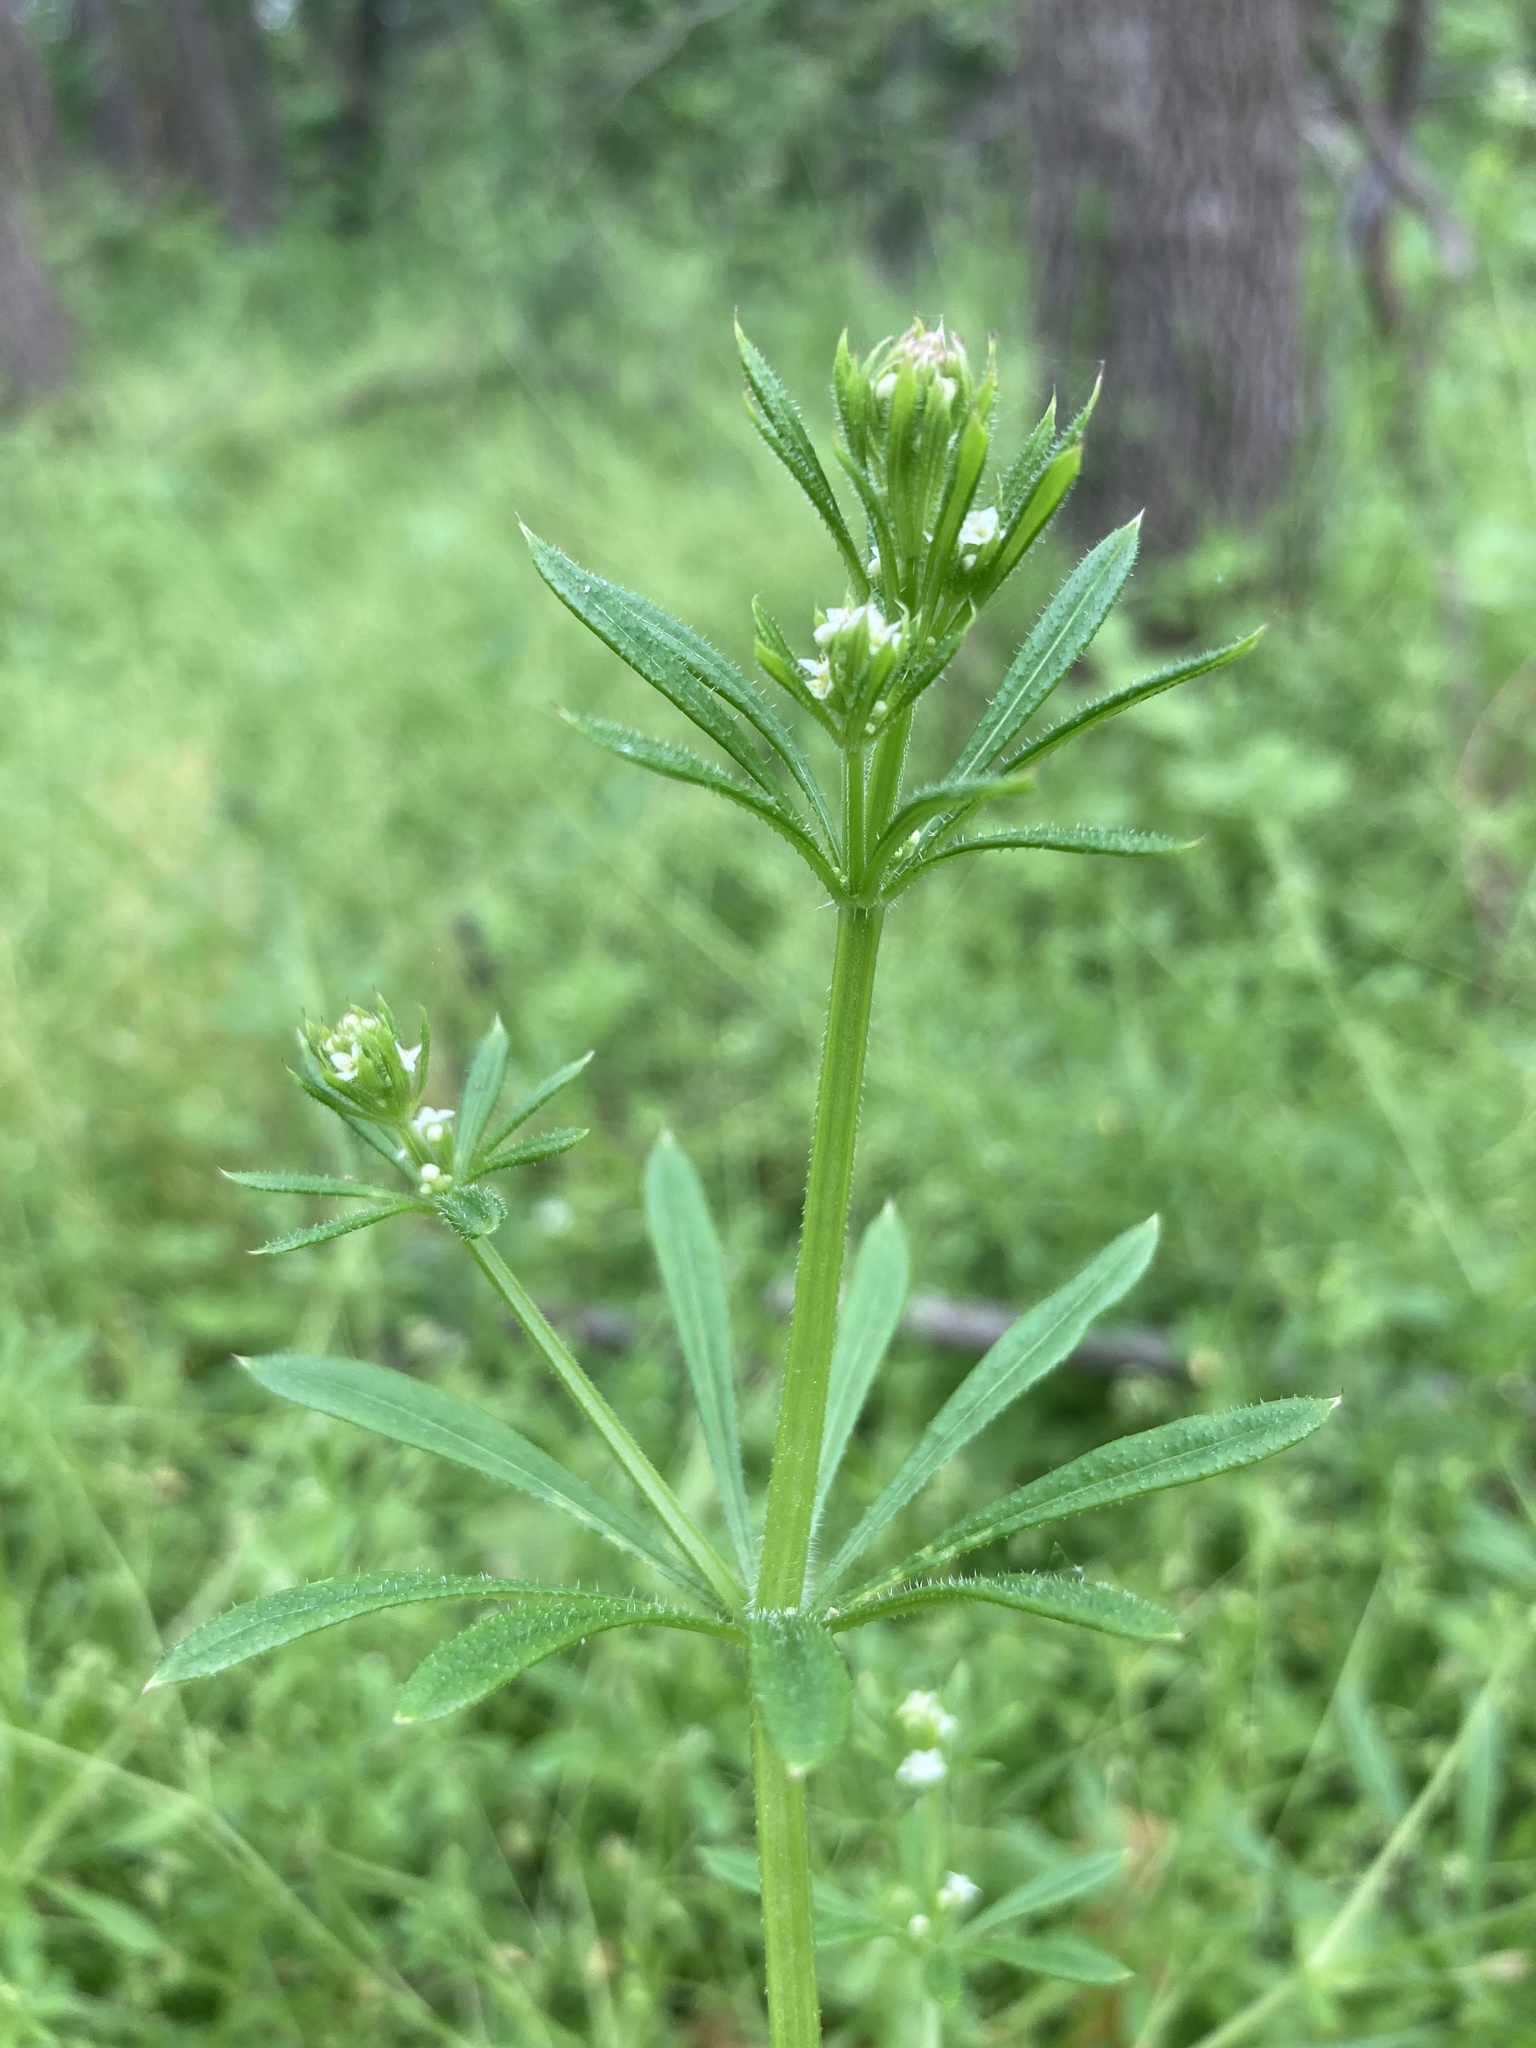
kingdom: Plantae
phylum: Tracheophyta
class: Magnoliopsida
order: Gentianales
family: Rubiaceae
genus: Galium
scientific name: Galium aparine
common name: Cleavers
